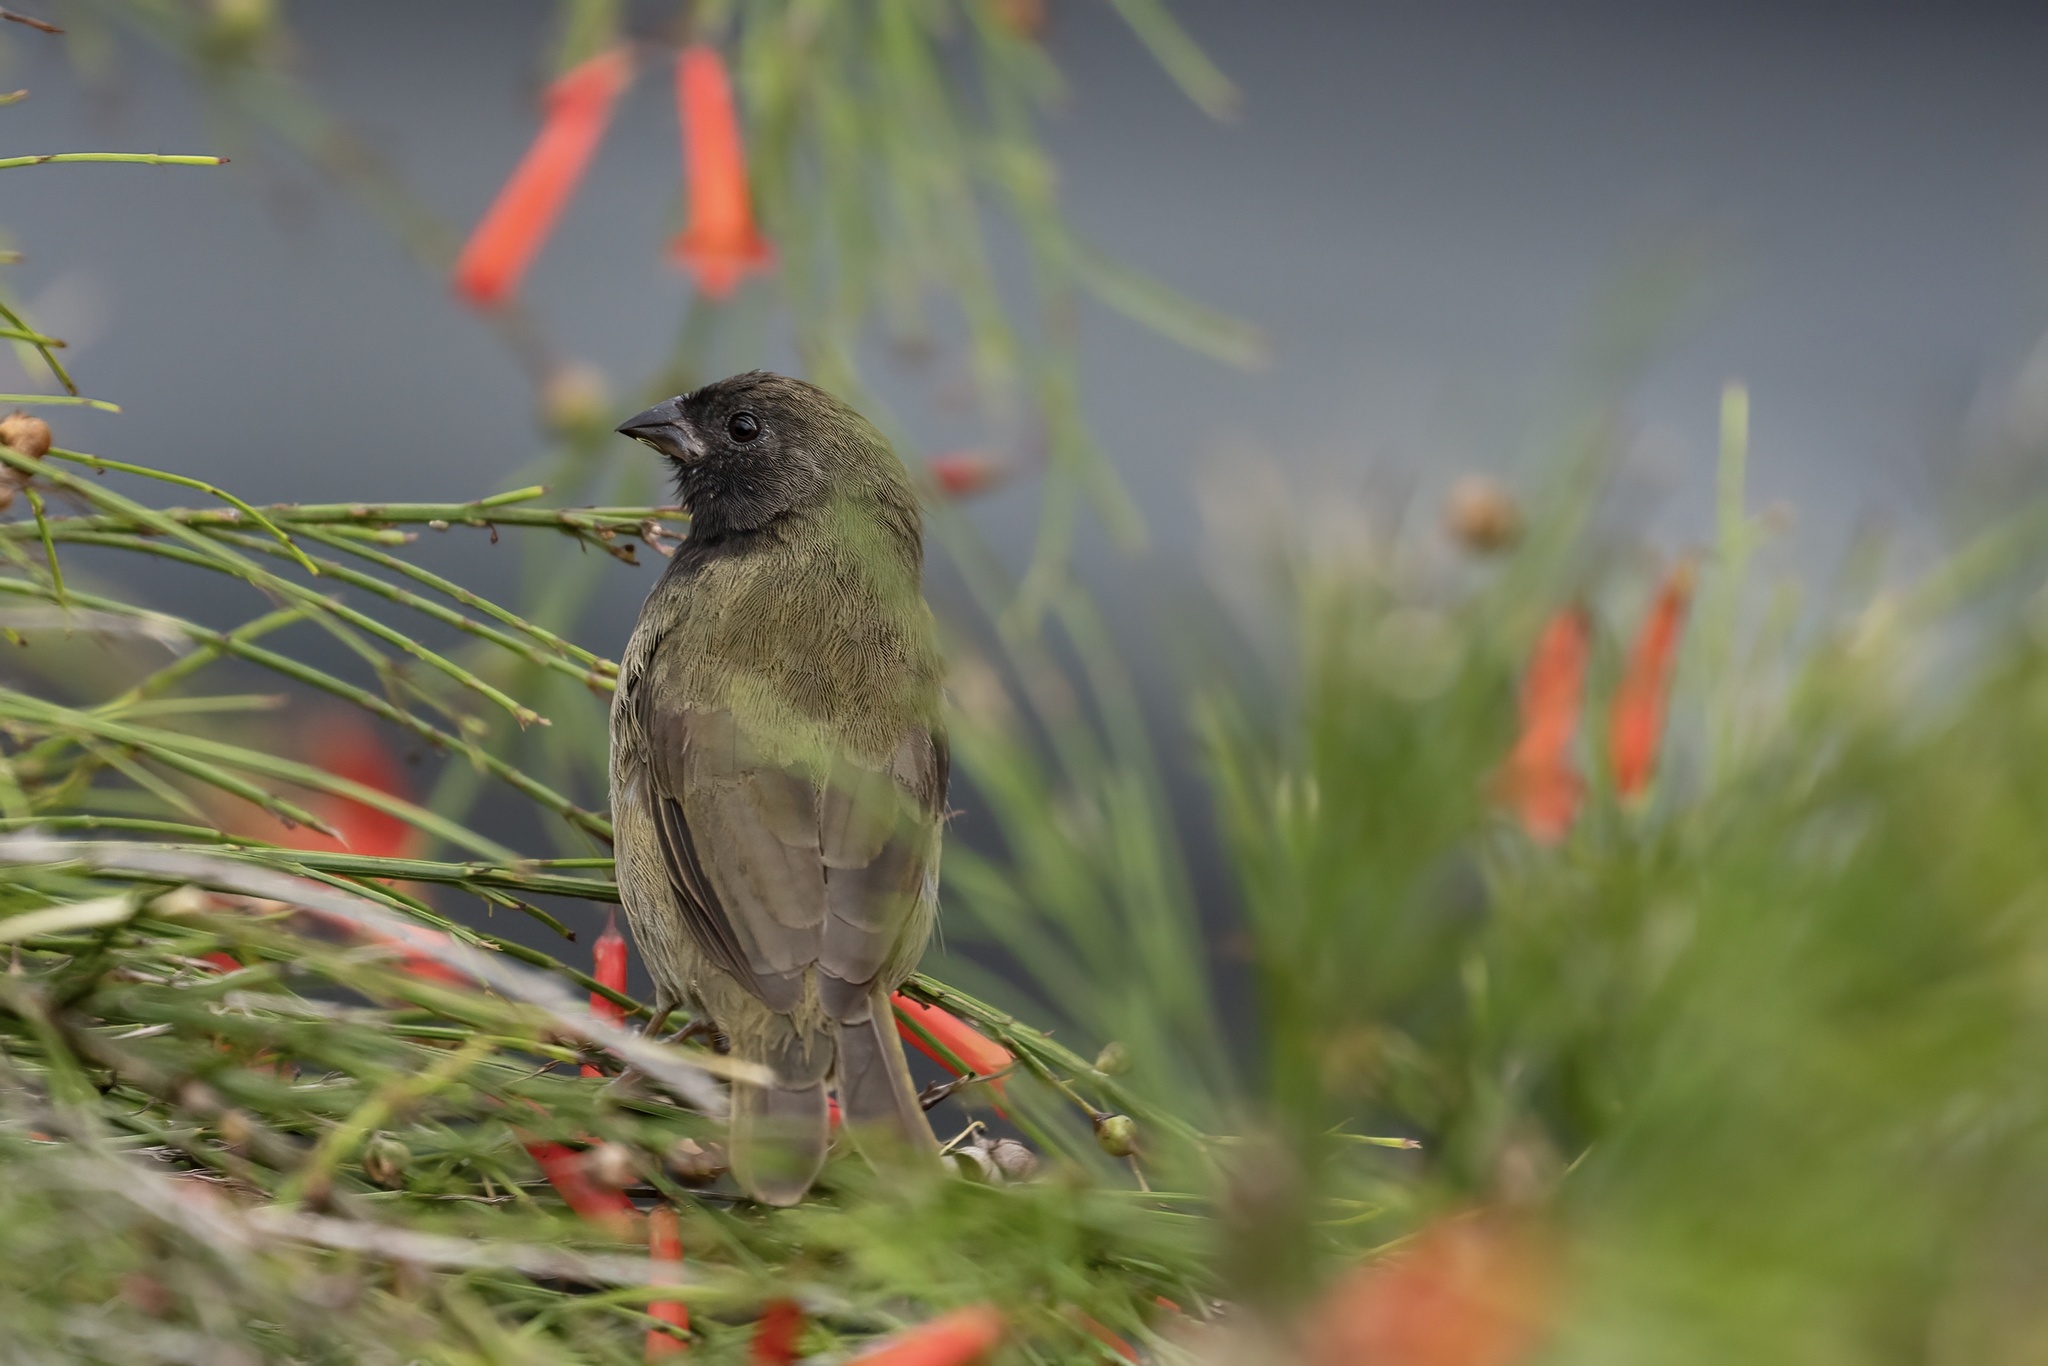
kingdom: Animalia
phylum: Chordata
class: Aves
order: Passeriformes
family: Thraupidae
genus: Melanospiza
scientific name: Melanospiza bicolor
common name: Black-faced grassquit
